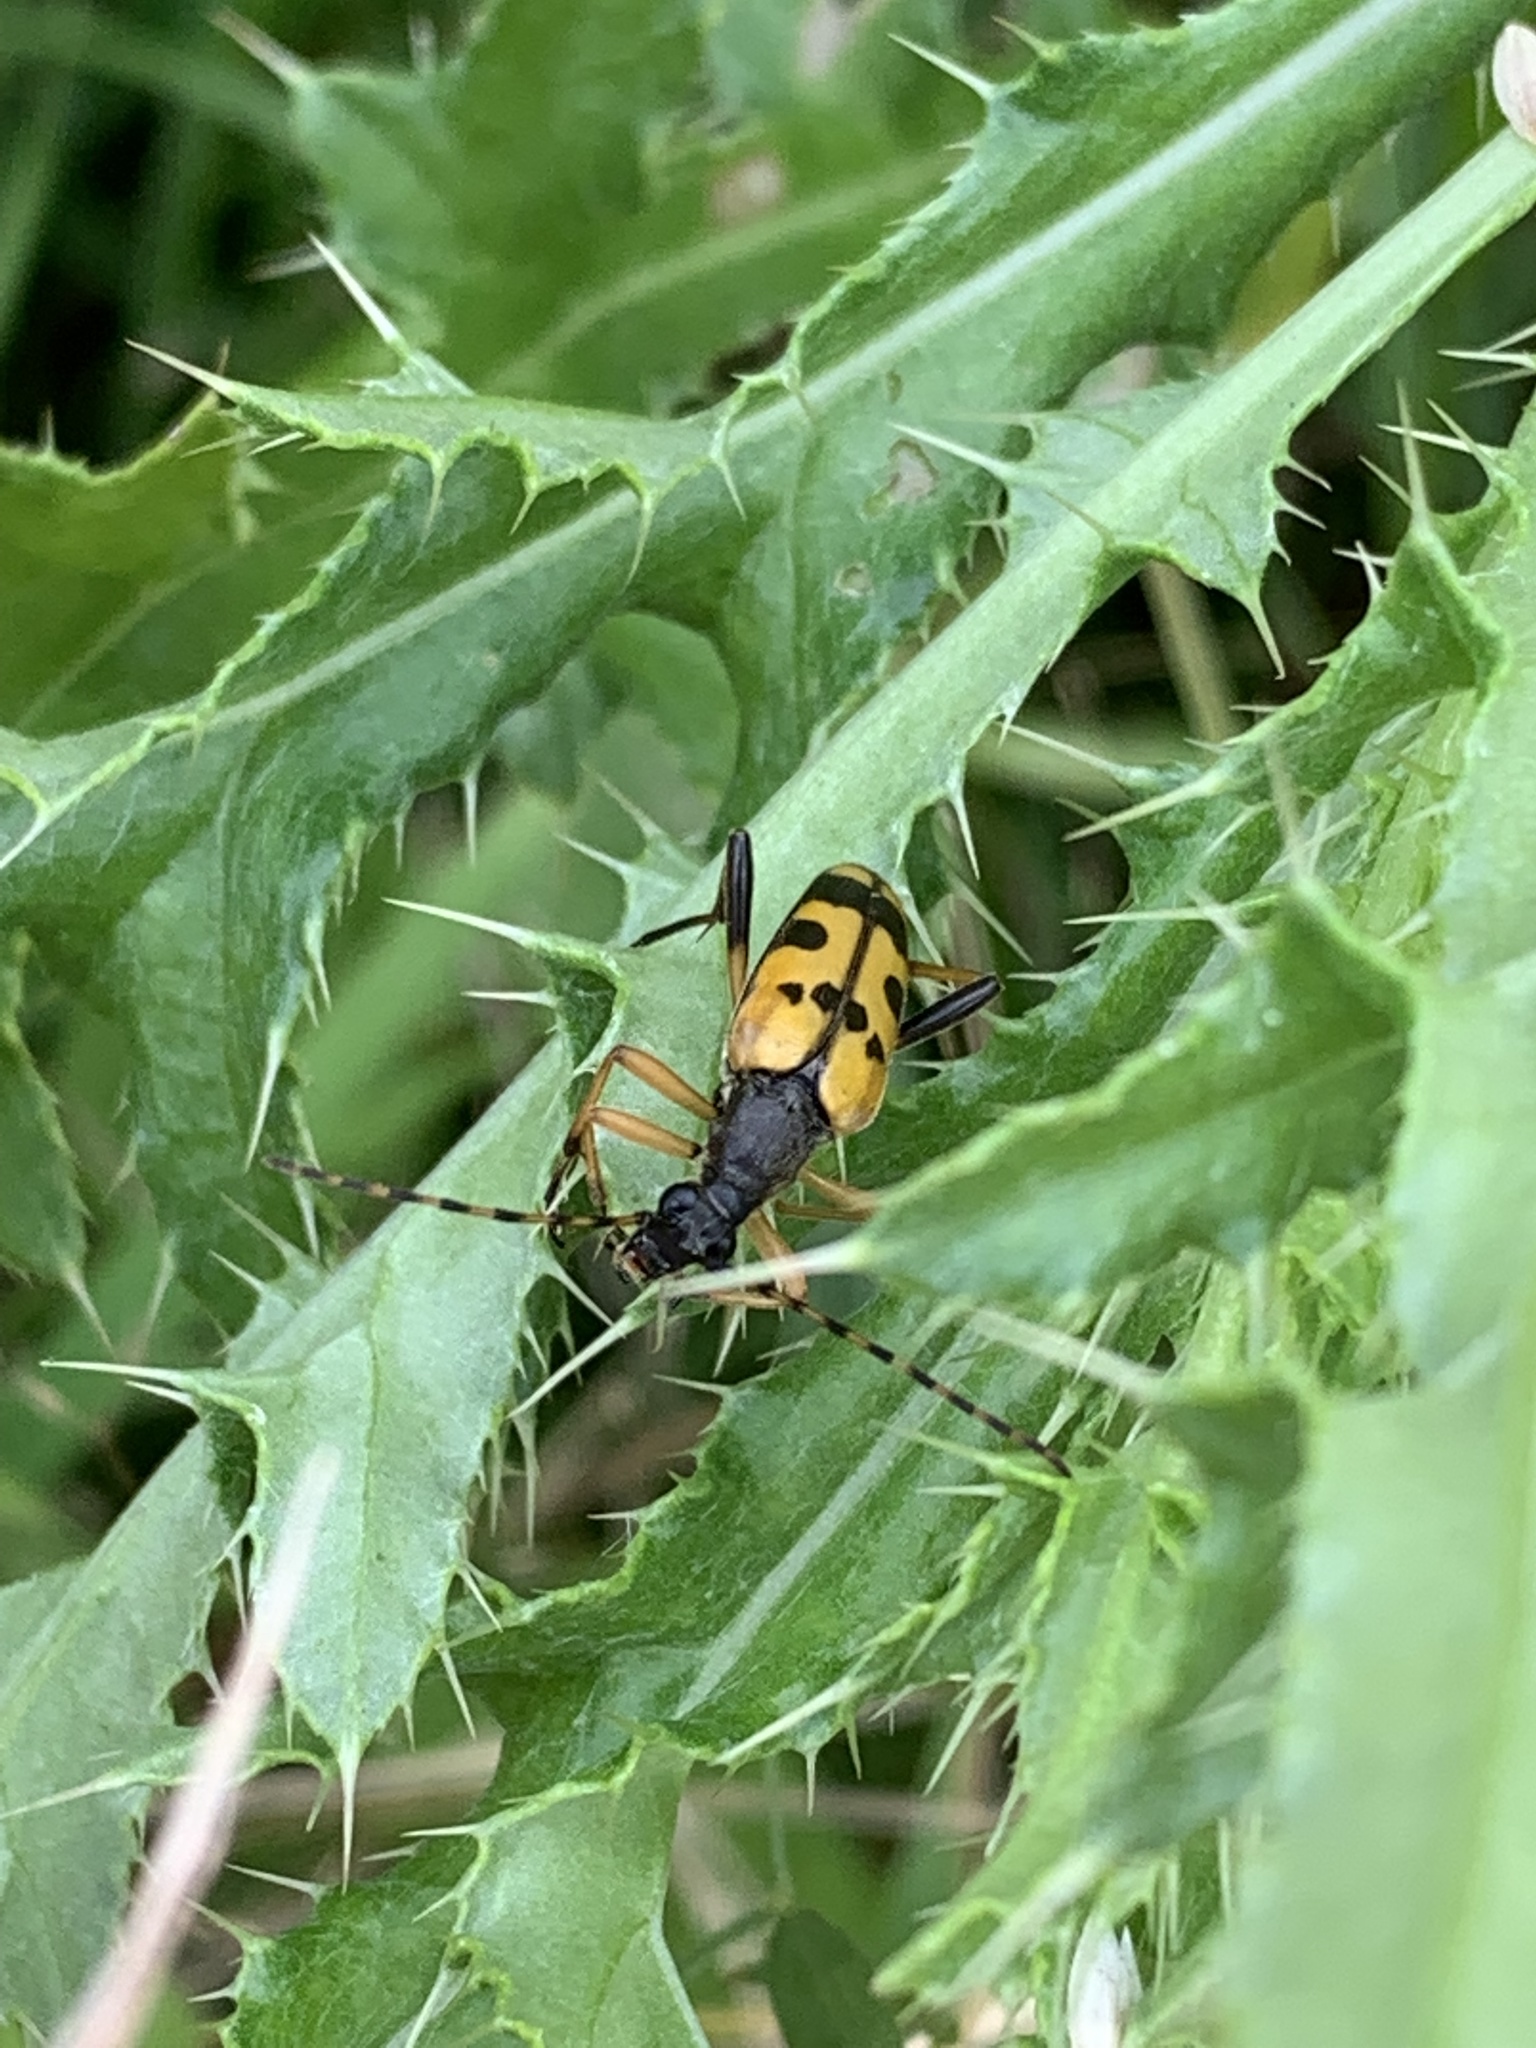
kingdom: Animalia
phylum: Arthropoda
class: Insecta
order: Coleoptera
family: Cerambycidae
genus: Rutpela
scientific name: Rutpela maculata
